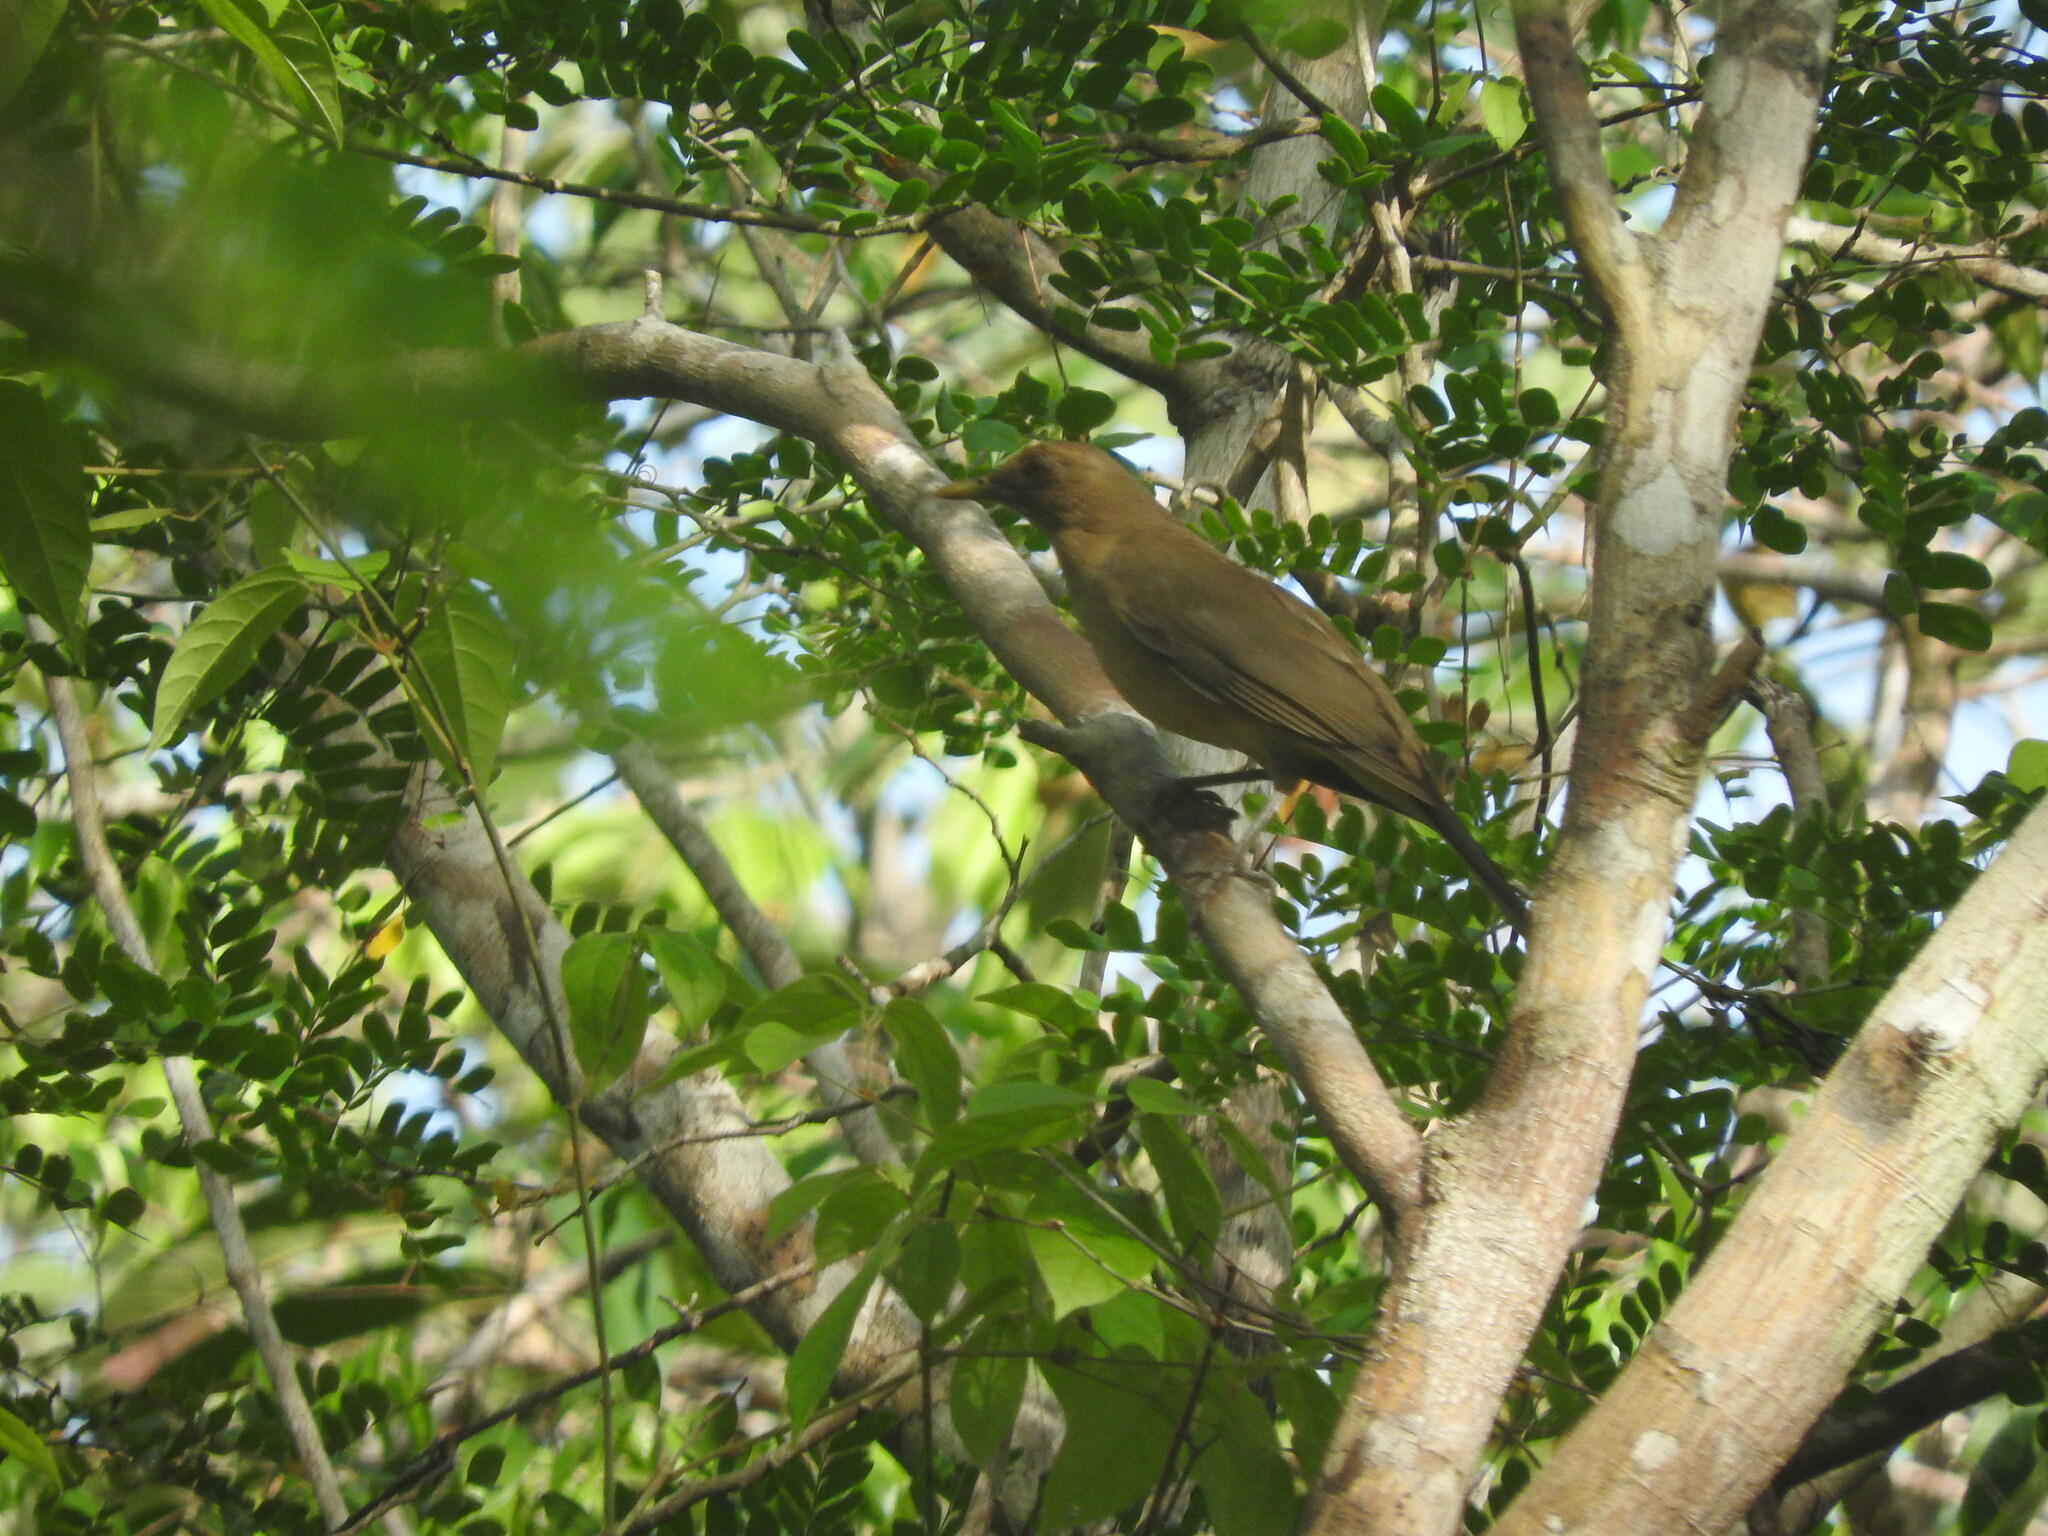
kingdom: Animalia
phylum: Chordata
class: Aves
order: Passeriformes
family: Turdidae
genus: Turdus
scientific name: Turdus grayi
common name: Clay-colored thrush
